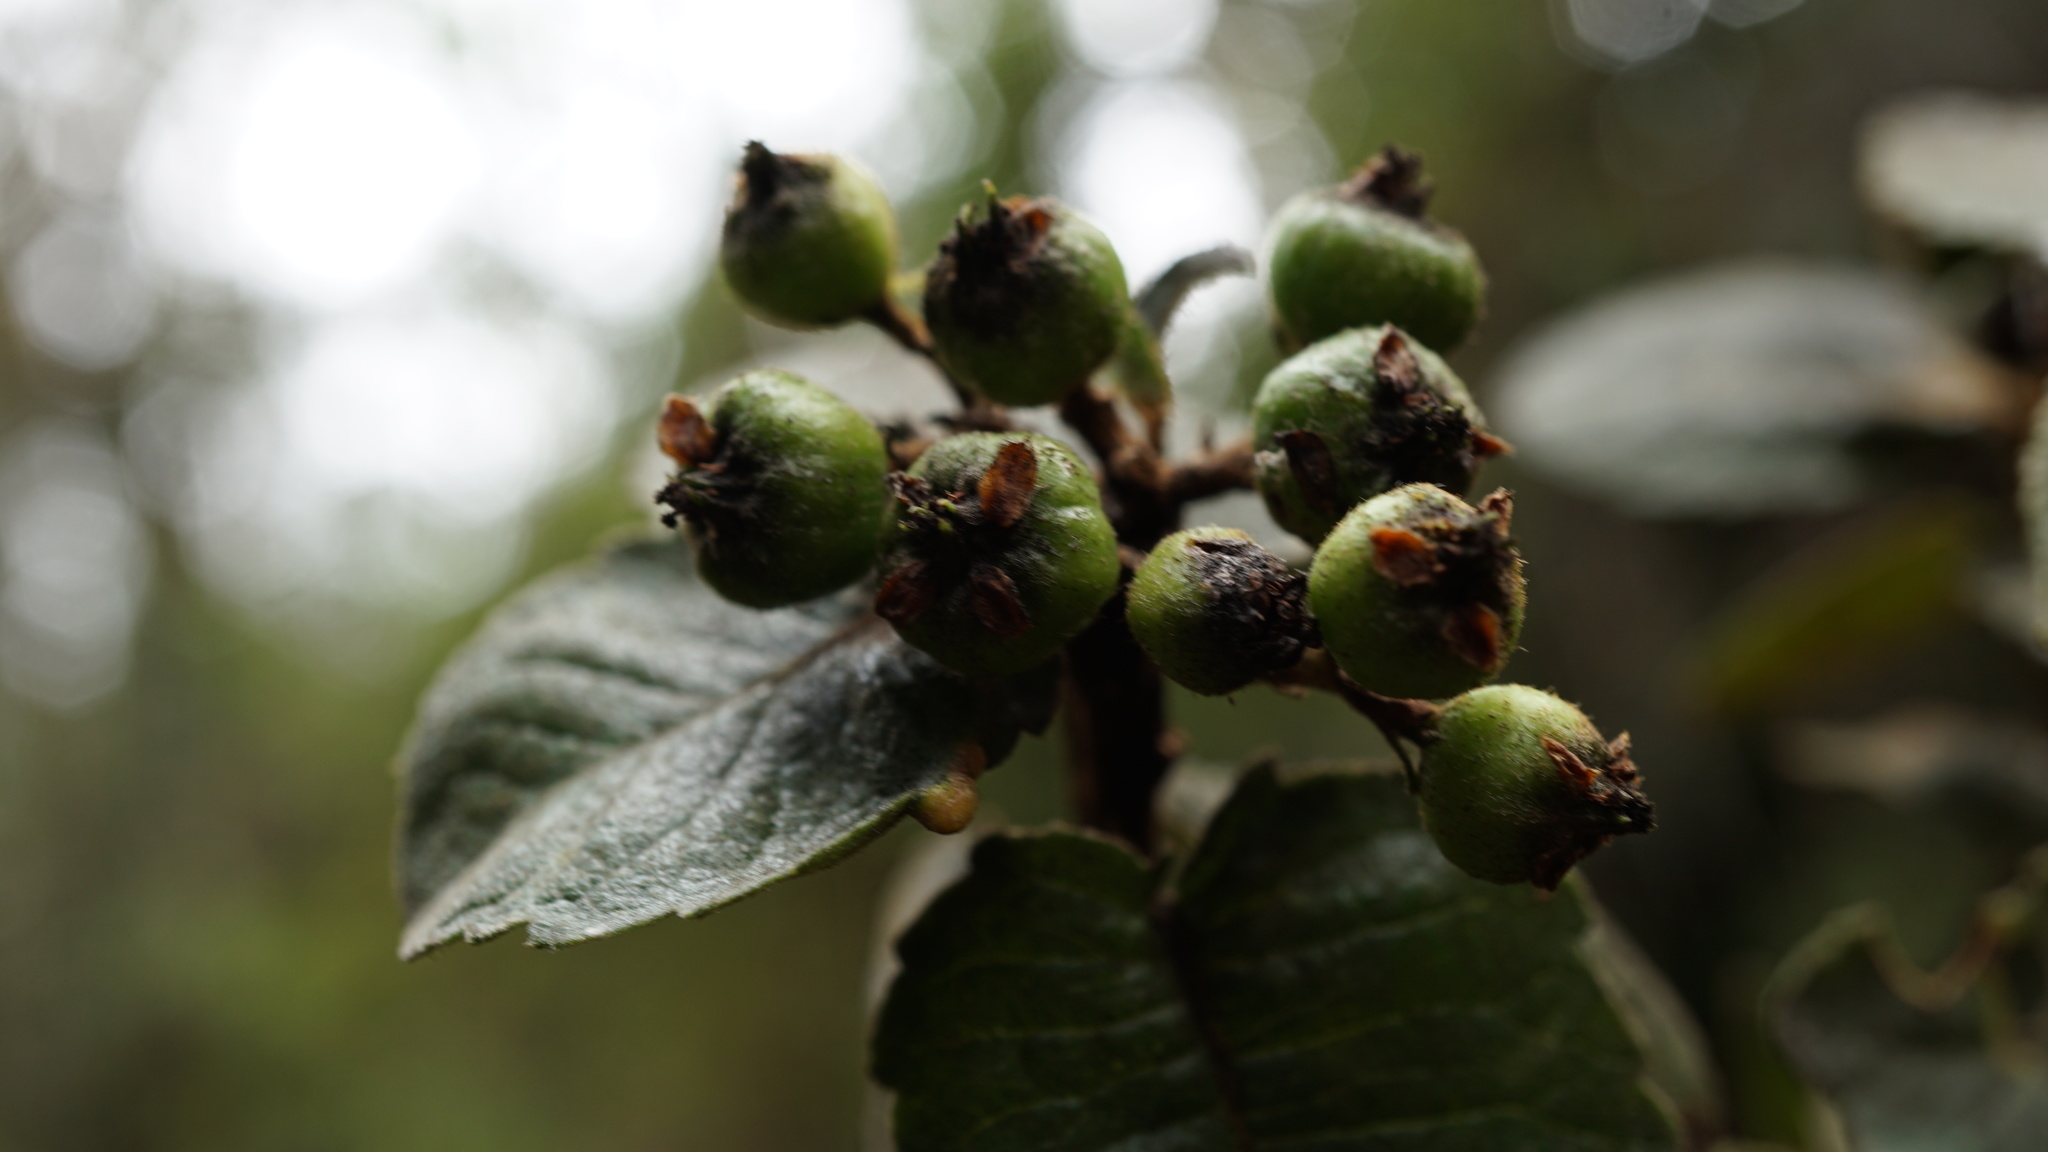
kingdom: Plantae
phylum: Tracheophyta
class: Magnoliopsida
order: Rosales
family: Rosaceae
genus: Hesperomeles
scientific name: Hesperomeles goudotiana
